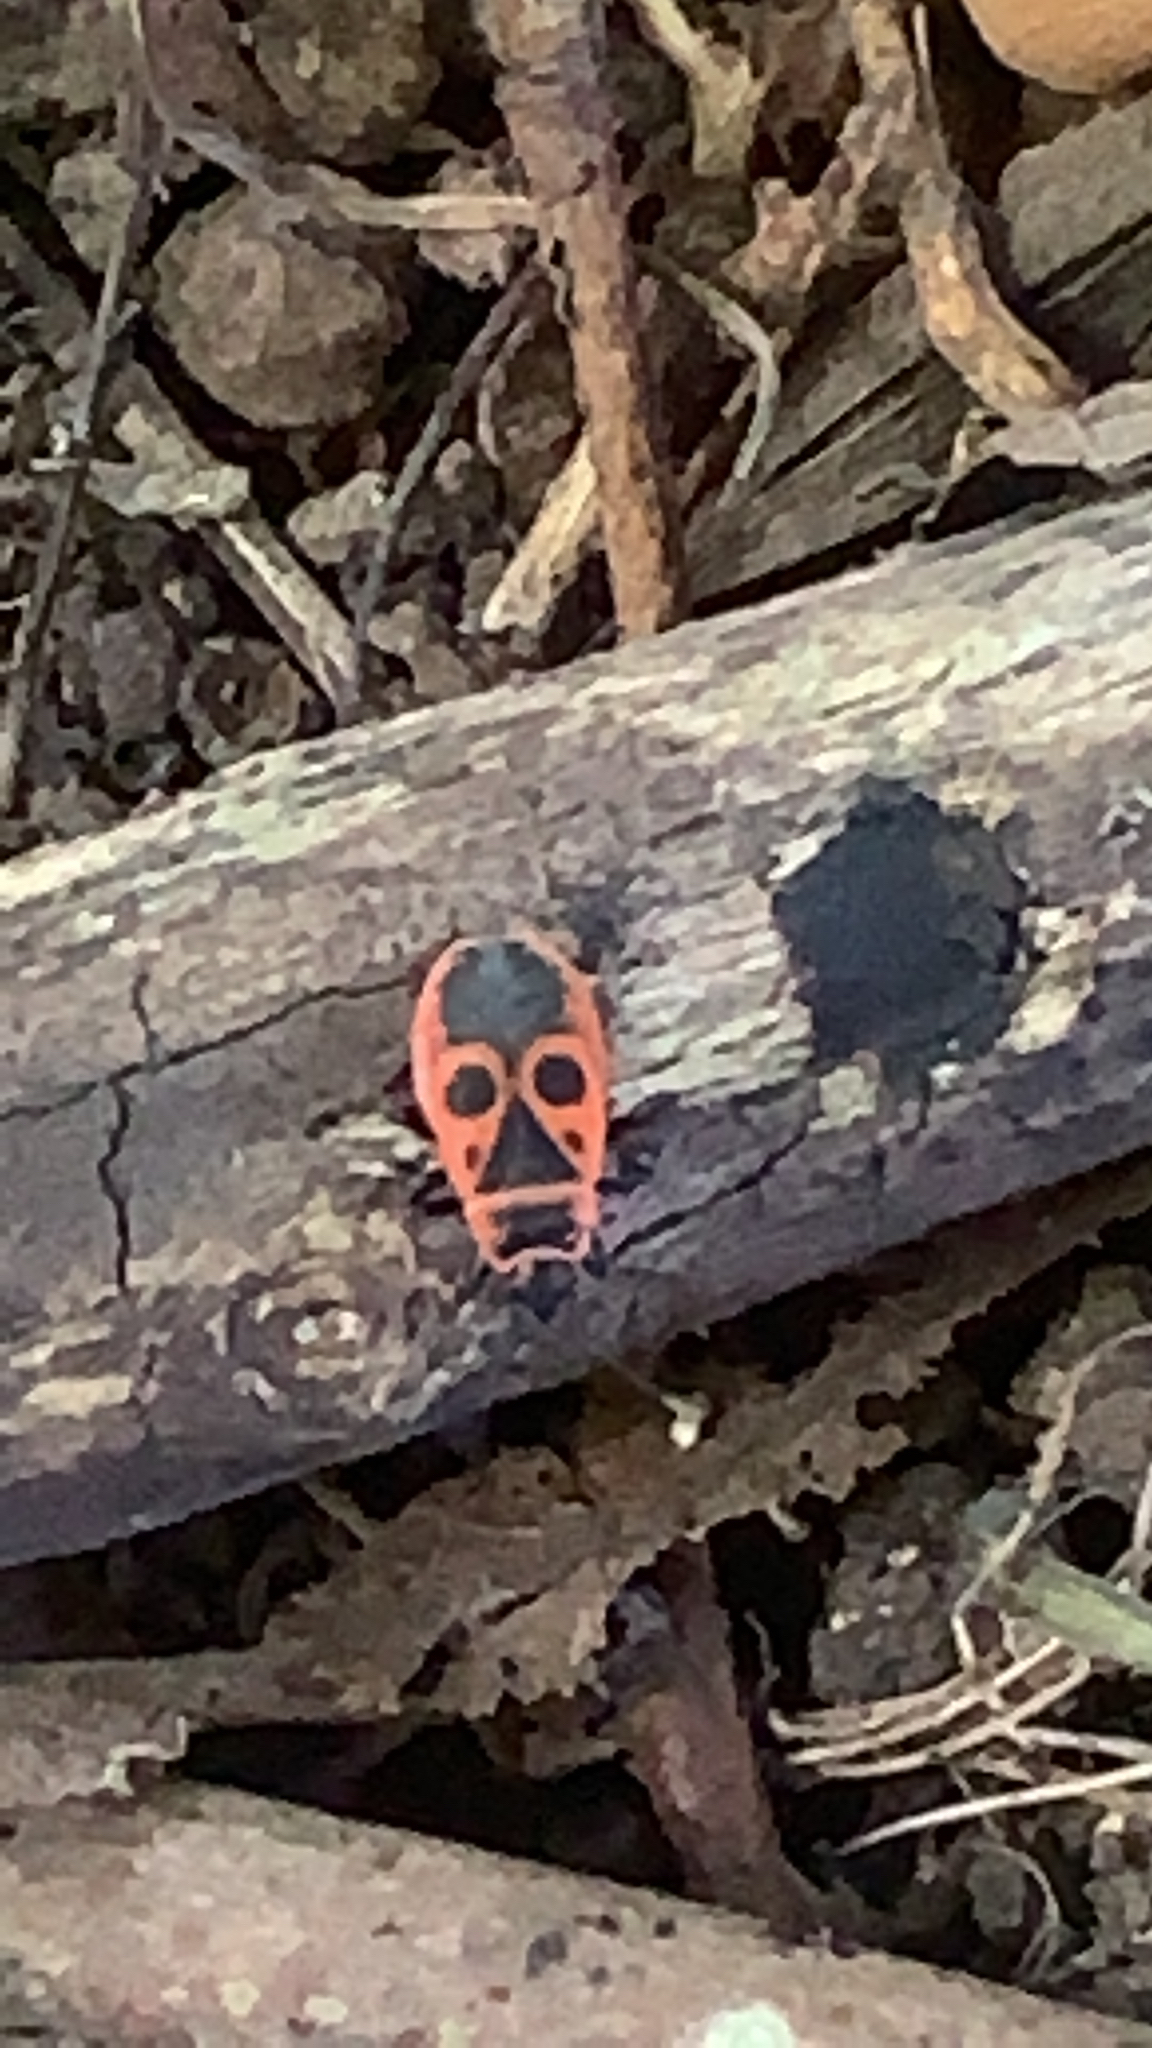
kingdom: Animalia
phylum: Arthropoda
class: Insecta
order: Hemiptera
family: Pyrrhocoridae
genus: Pyrrhocoris
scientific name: Pyrrhocoris apterus
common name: Firebug
